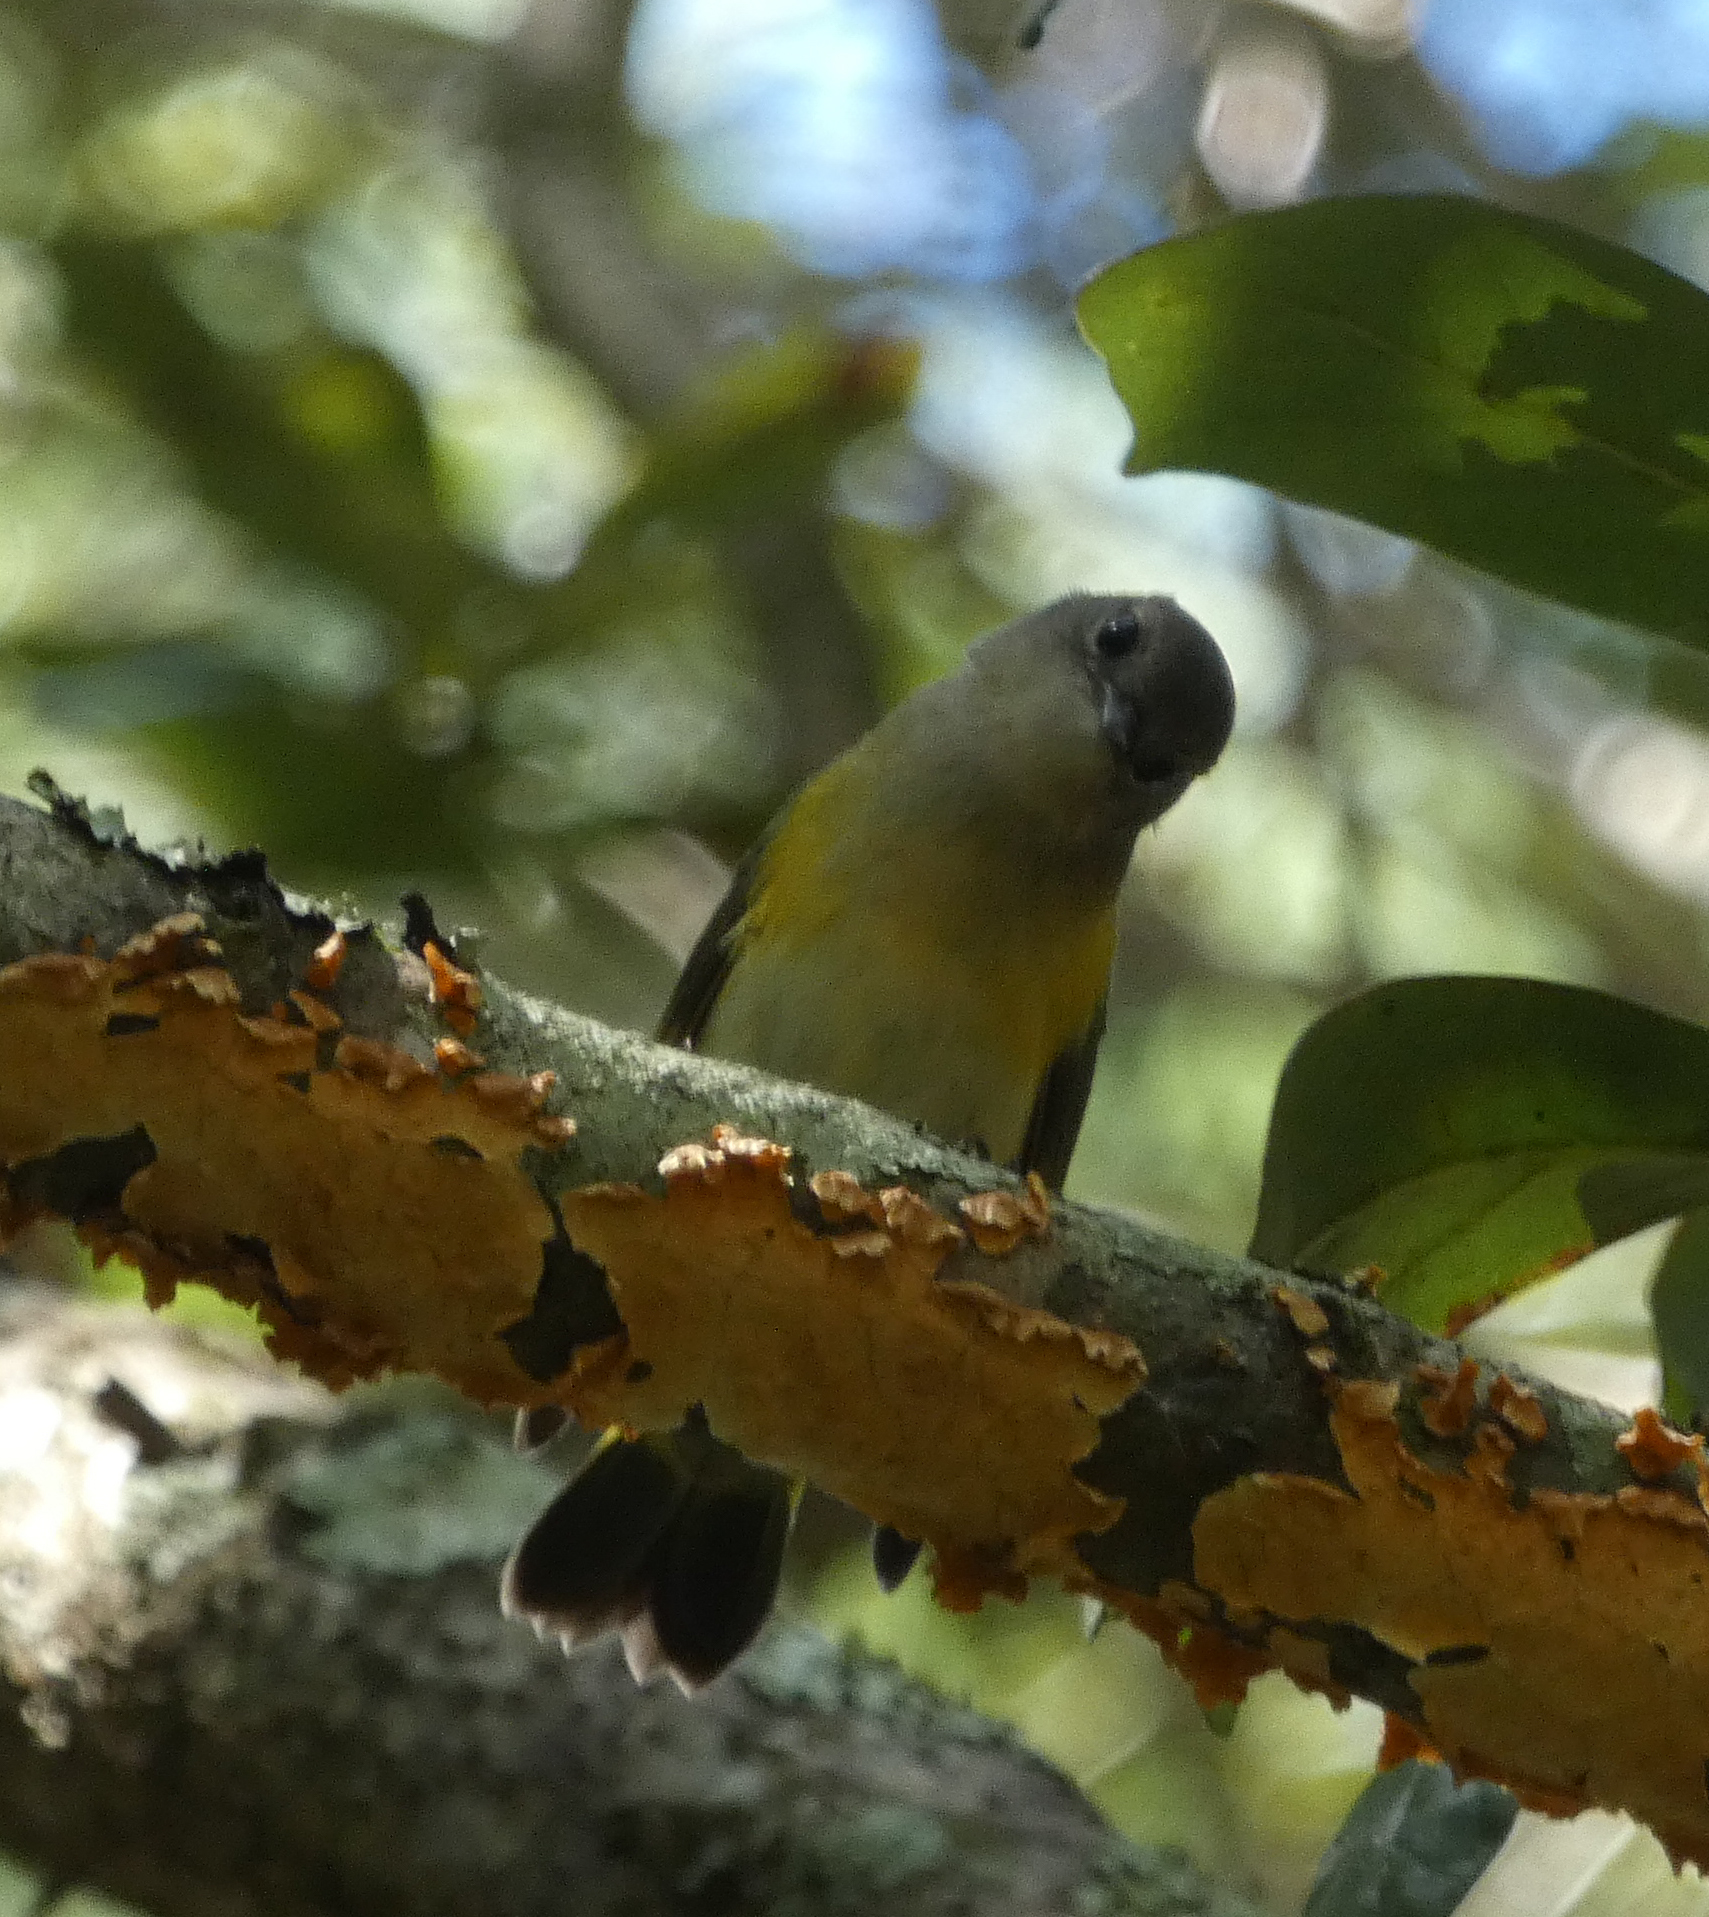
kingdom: Animalia
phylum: Chordata
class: Aves
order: Passeriformes
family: Parulidae
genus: Setophaga
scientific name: Setophaga ruticilla
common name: American redstart
